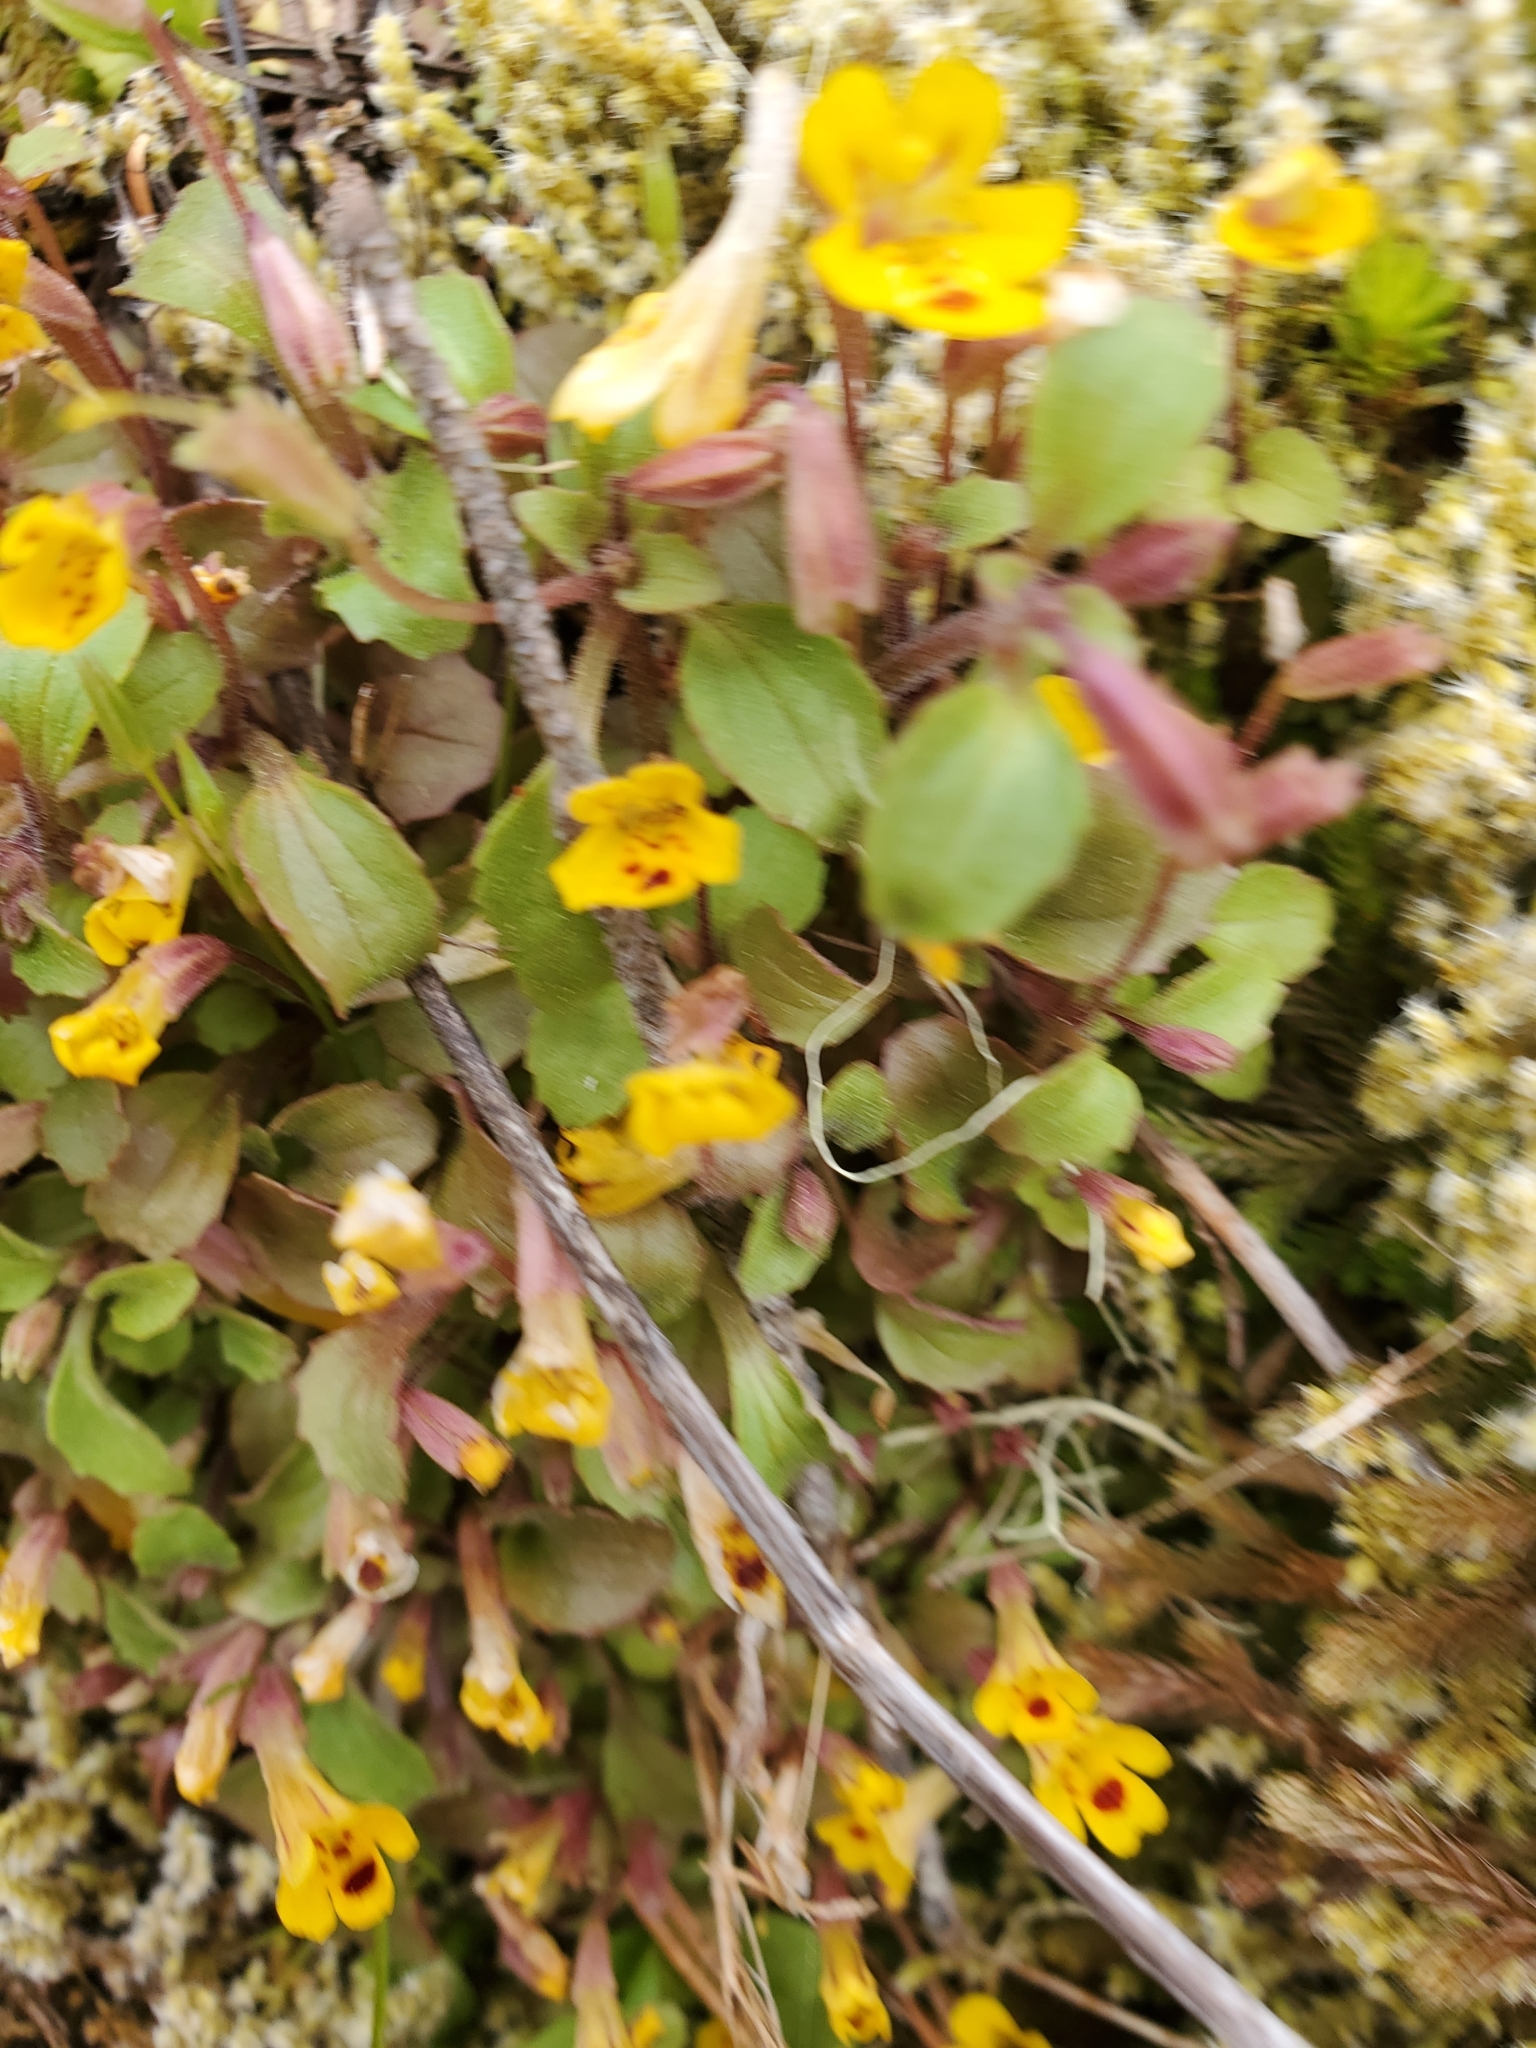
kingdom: Plantae
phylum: Tracheophyta
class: Magnoliopsida
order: Lamiales
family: Phrymaceae
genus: Erythranthe
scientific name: Erythranthe alsinoides
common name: Chickweed monkeyflower
